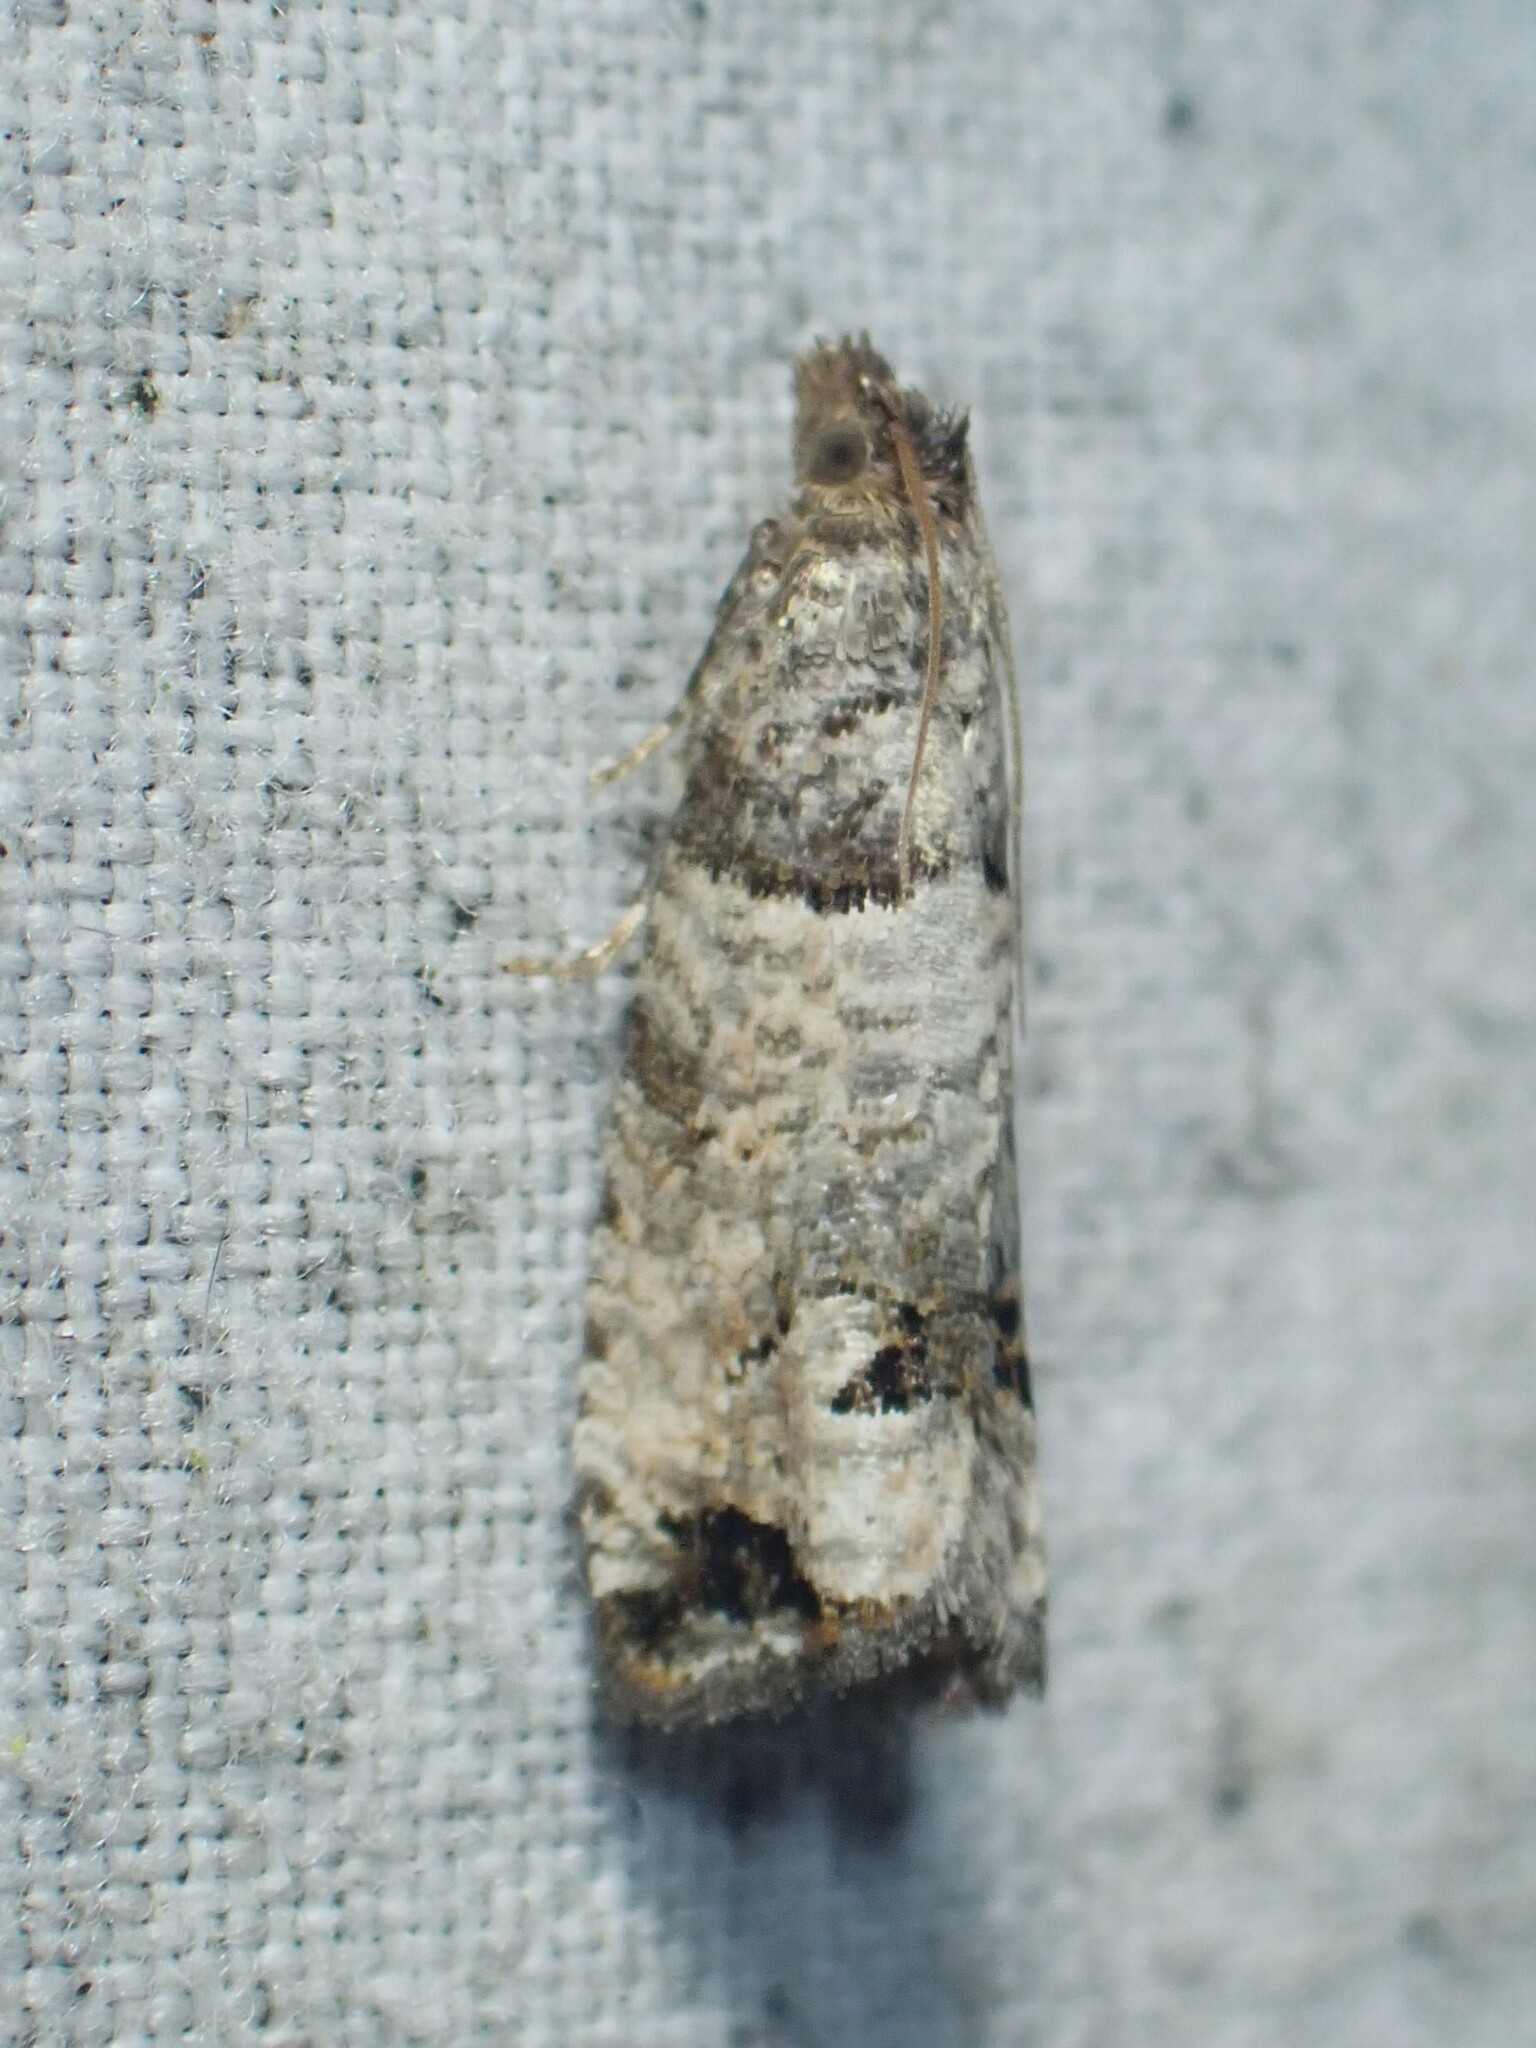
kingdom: Animalia
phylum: Arthropoda
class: Insecta
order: Lepidoptera
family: Tortricidae
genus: Notocelia
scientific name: Notocelia culminana
